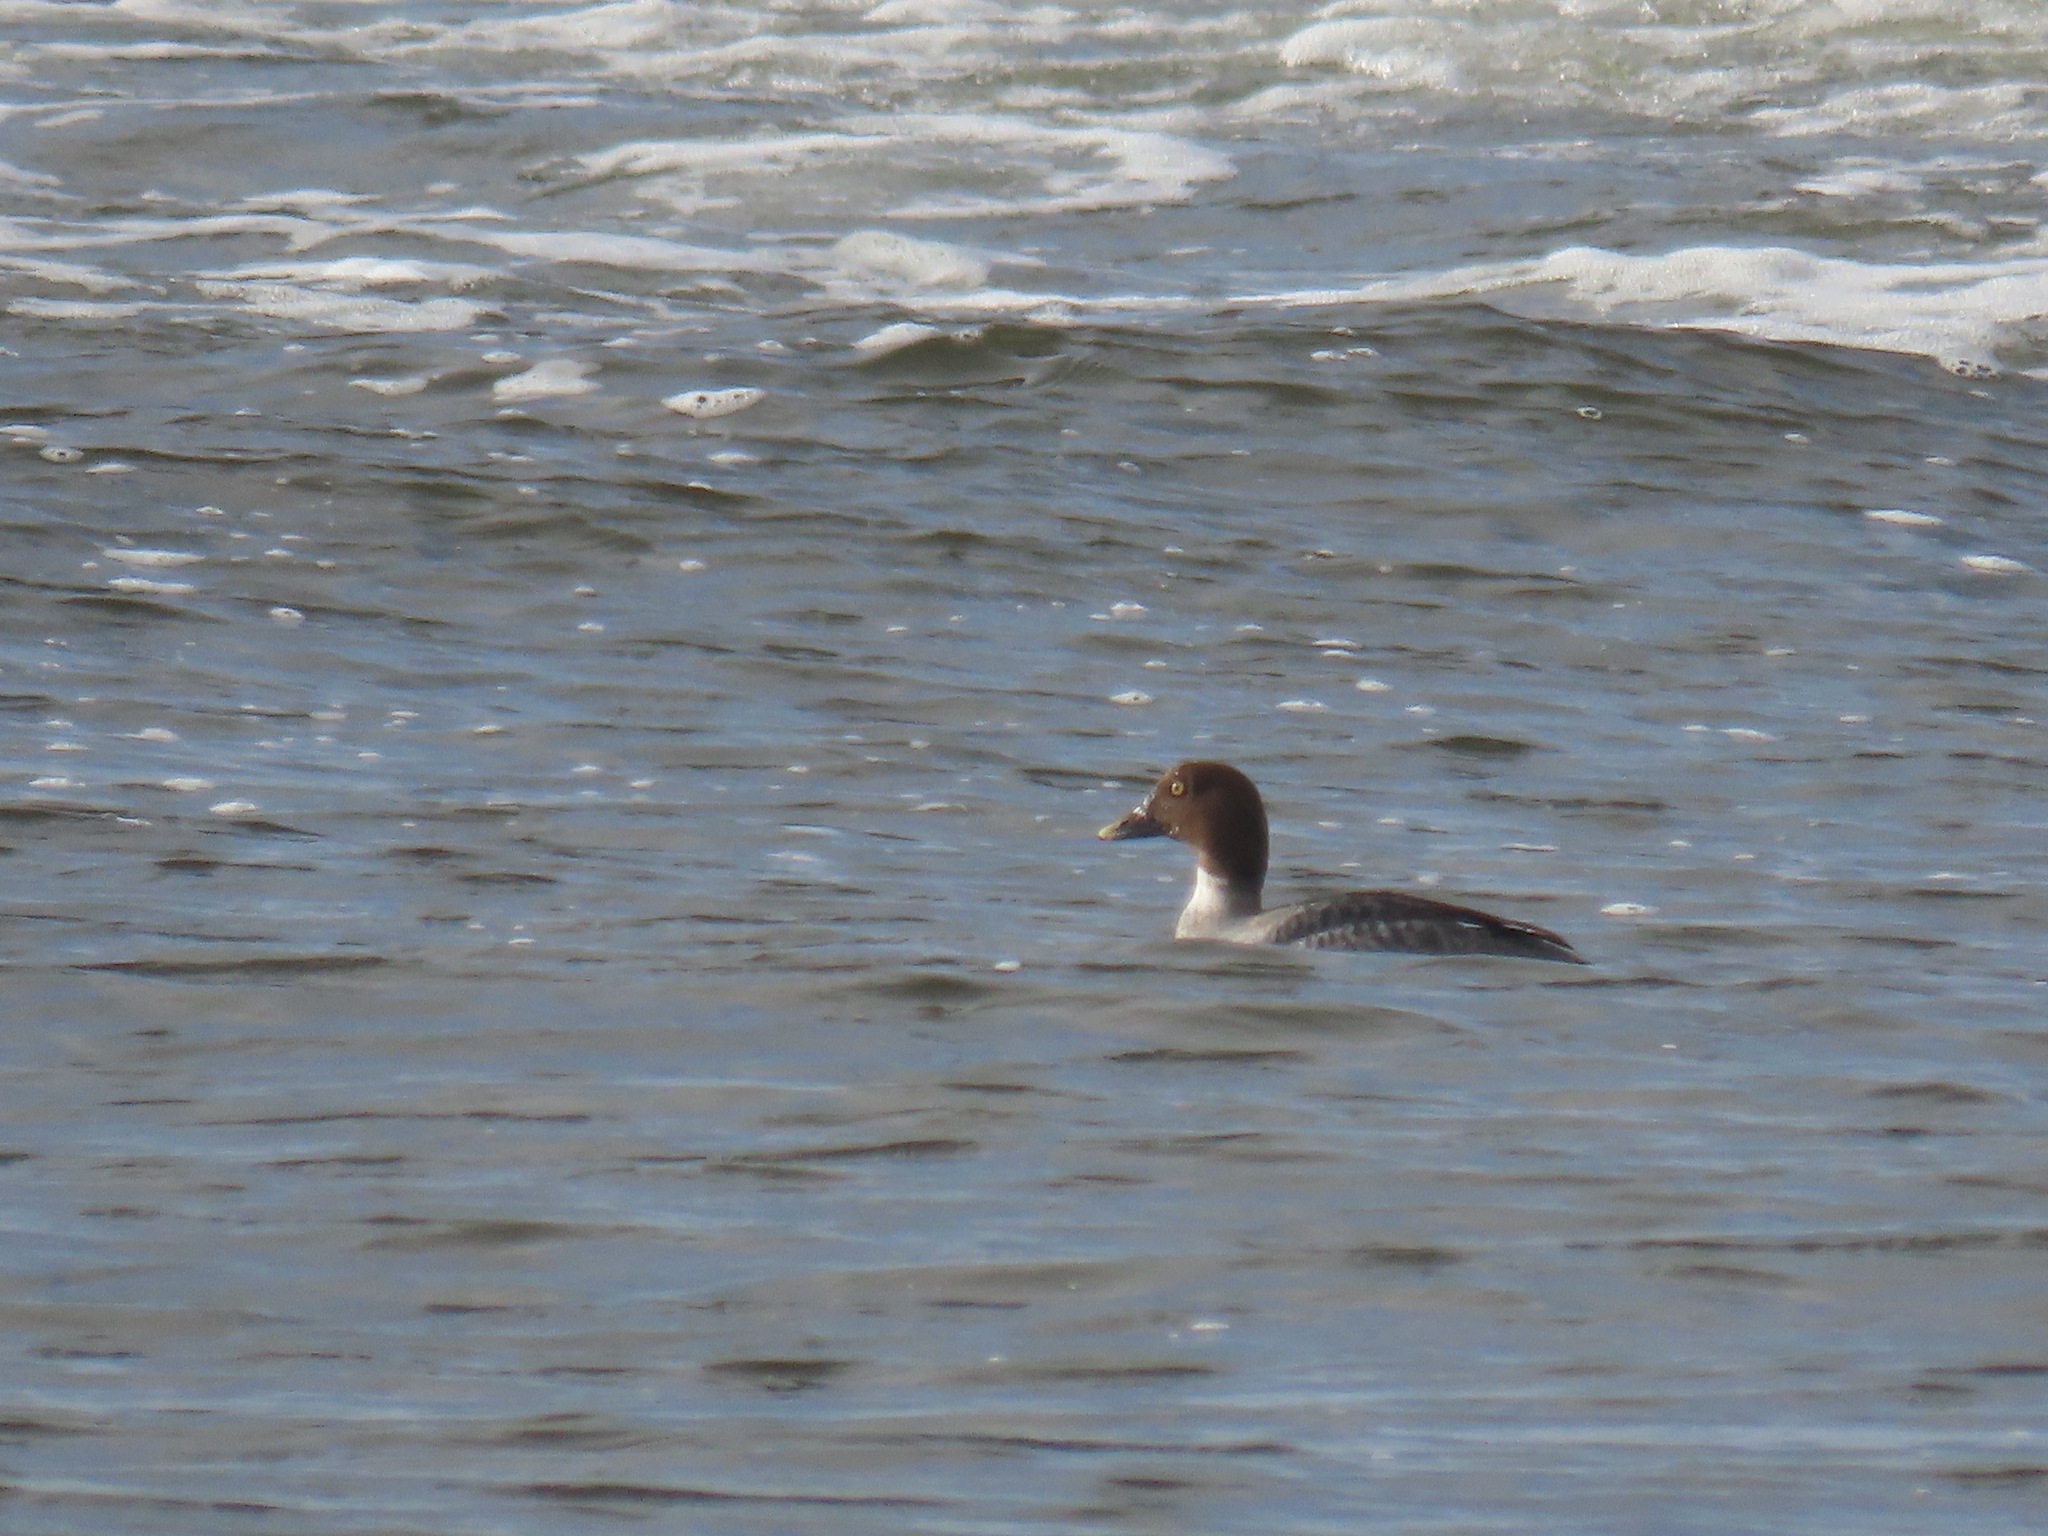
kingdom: Animalia
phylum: Chordata
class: Aves
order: Anseriformes
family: Anatidae
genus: Bucephala
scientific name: Bucephala clangula
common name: Common goldeneye
